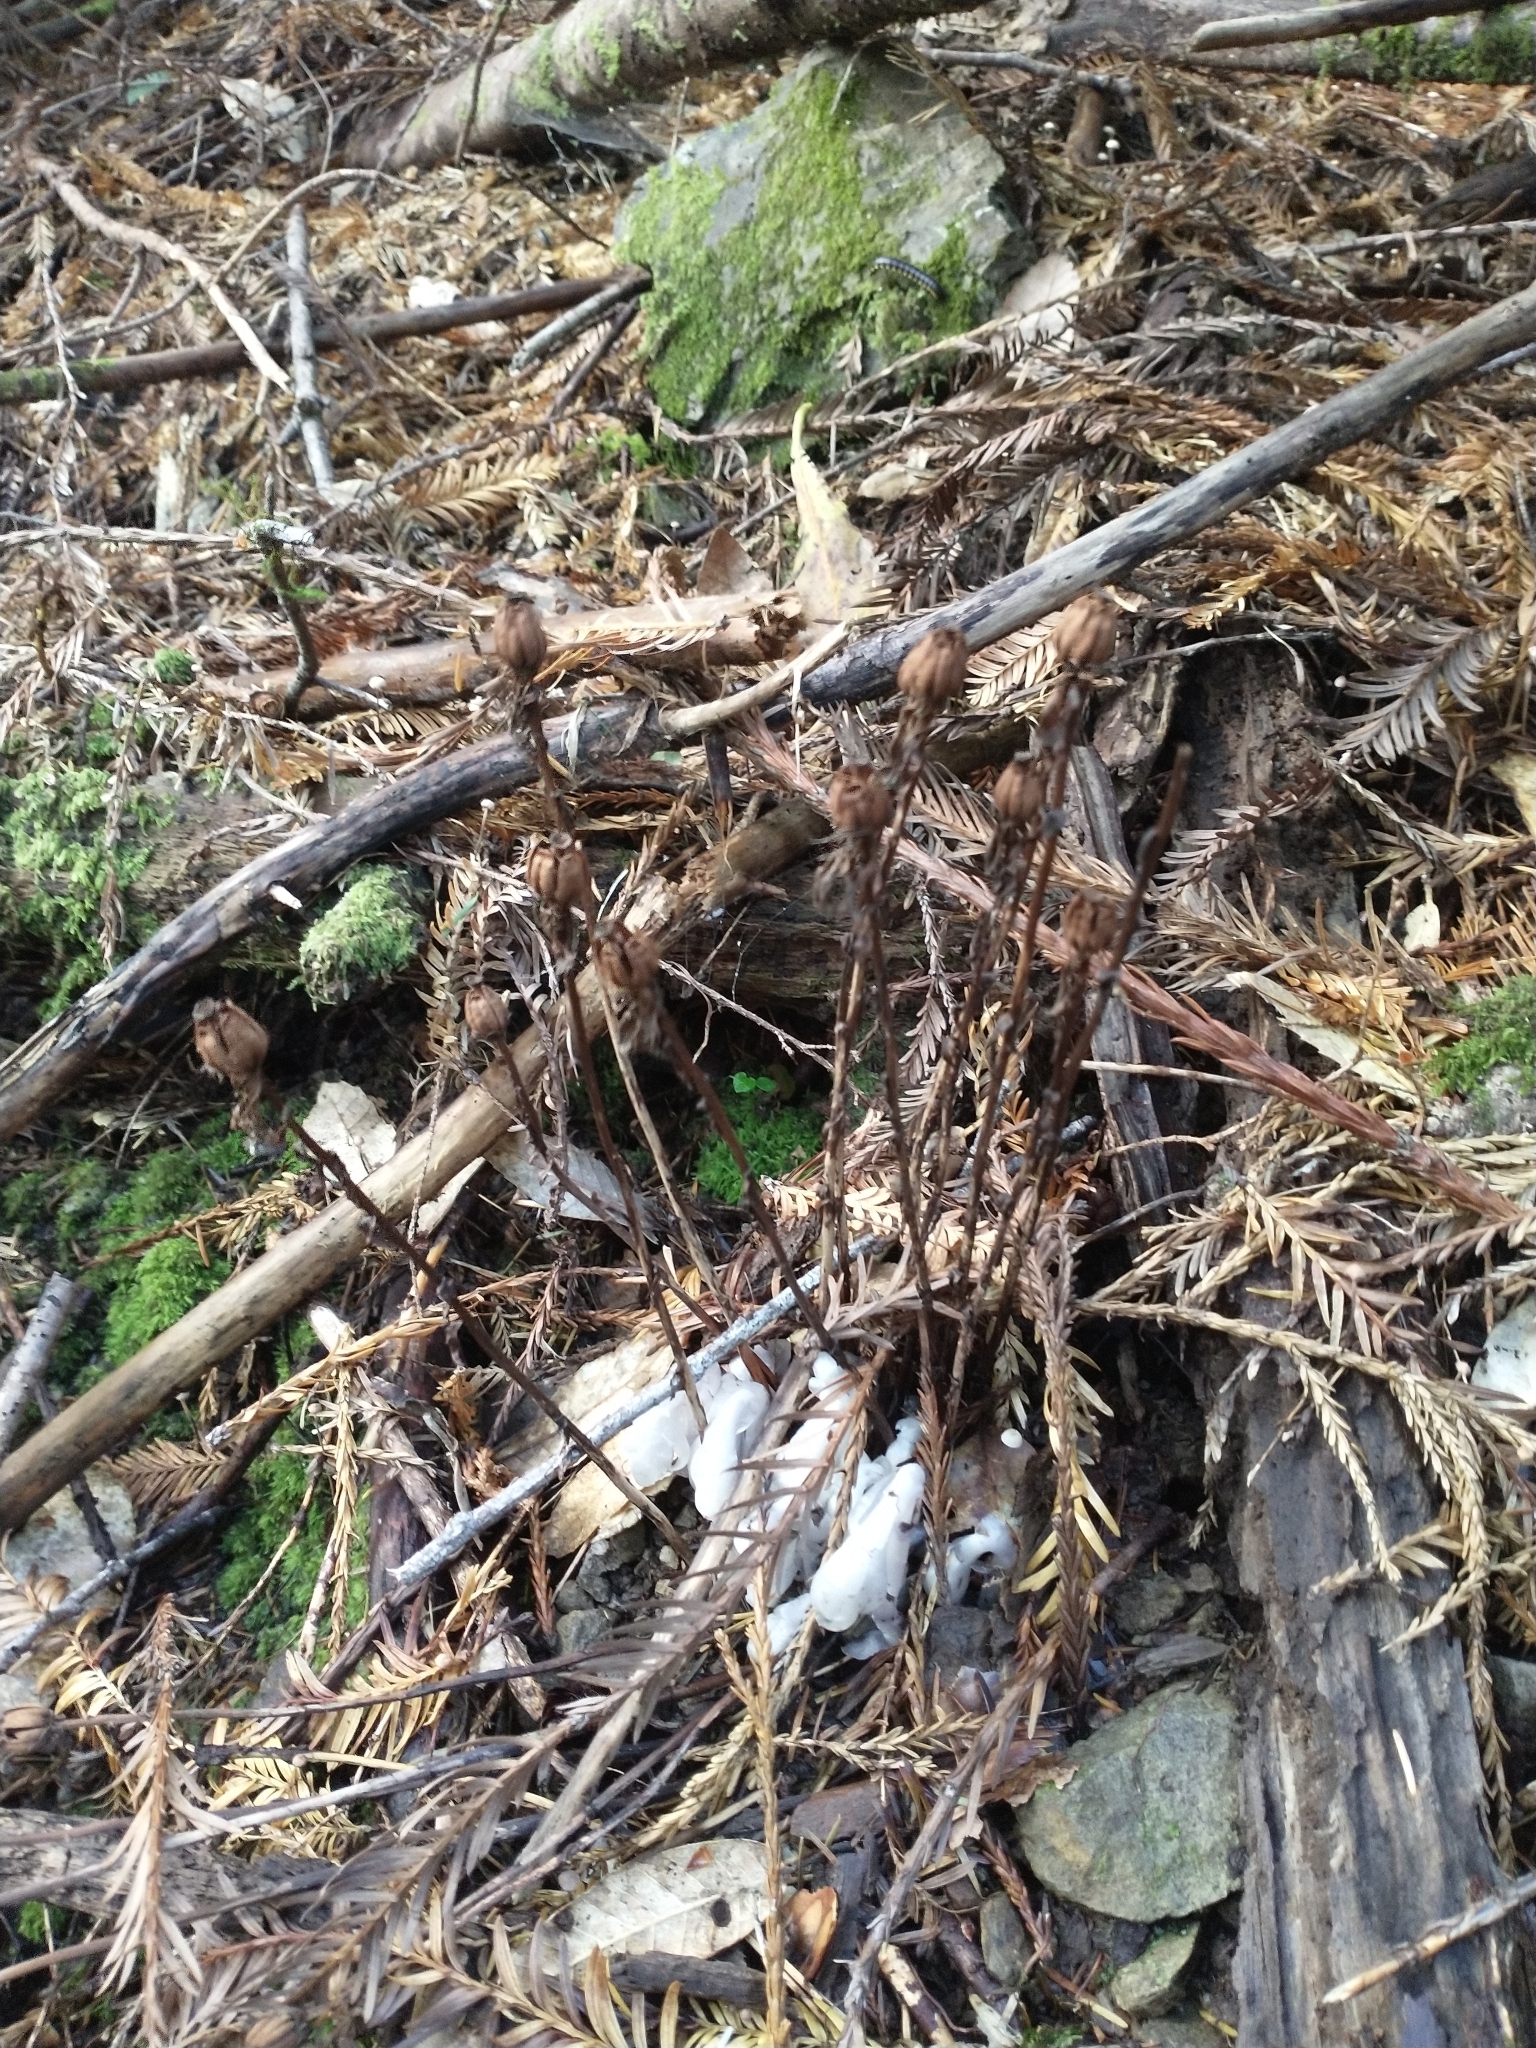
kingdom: Plantae
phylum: Tracheophyta
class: Magnoliopsida
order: Ericales
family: Ericaceae
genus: Monotropa
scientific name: Monotropa uniflora
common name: Convulsion root
